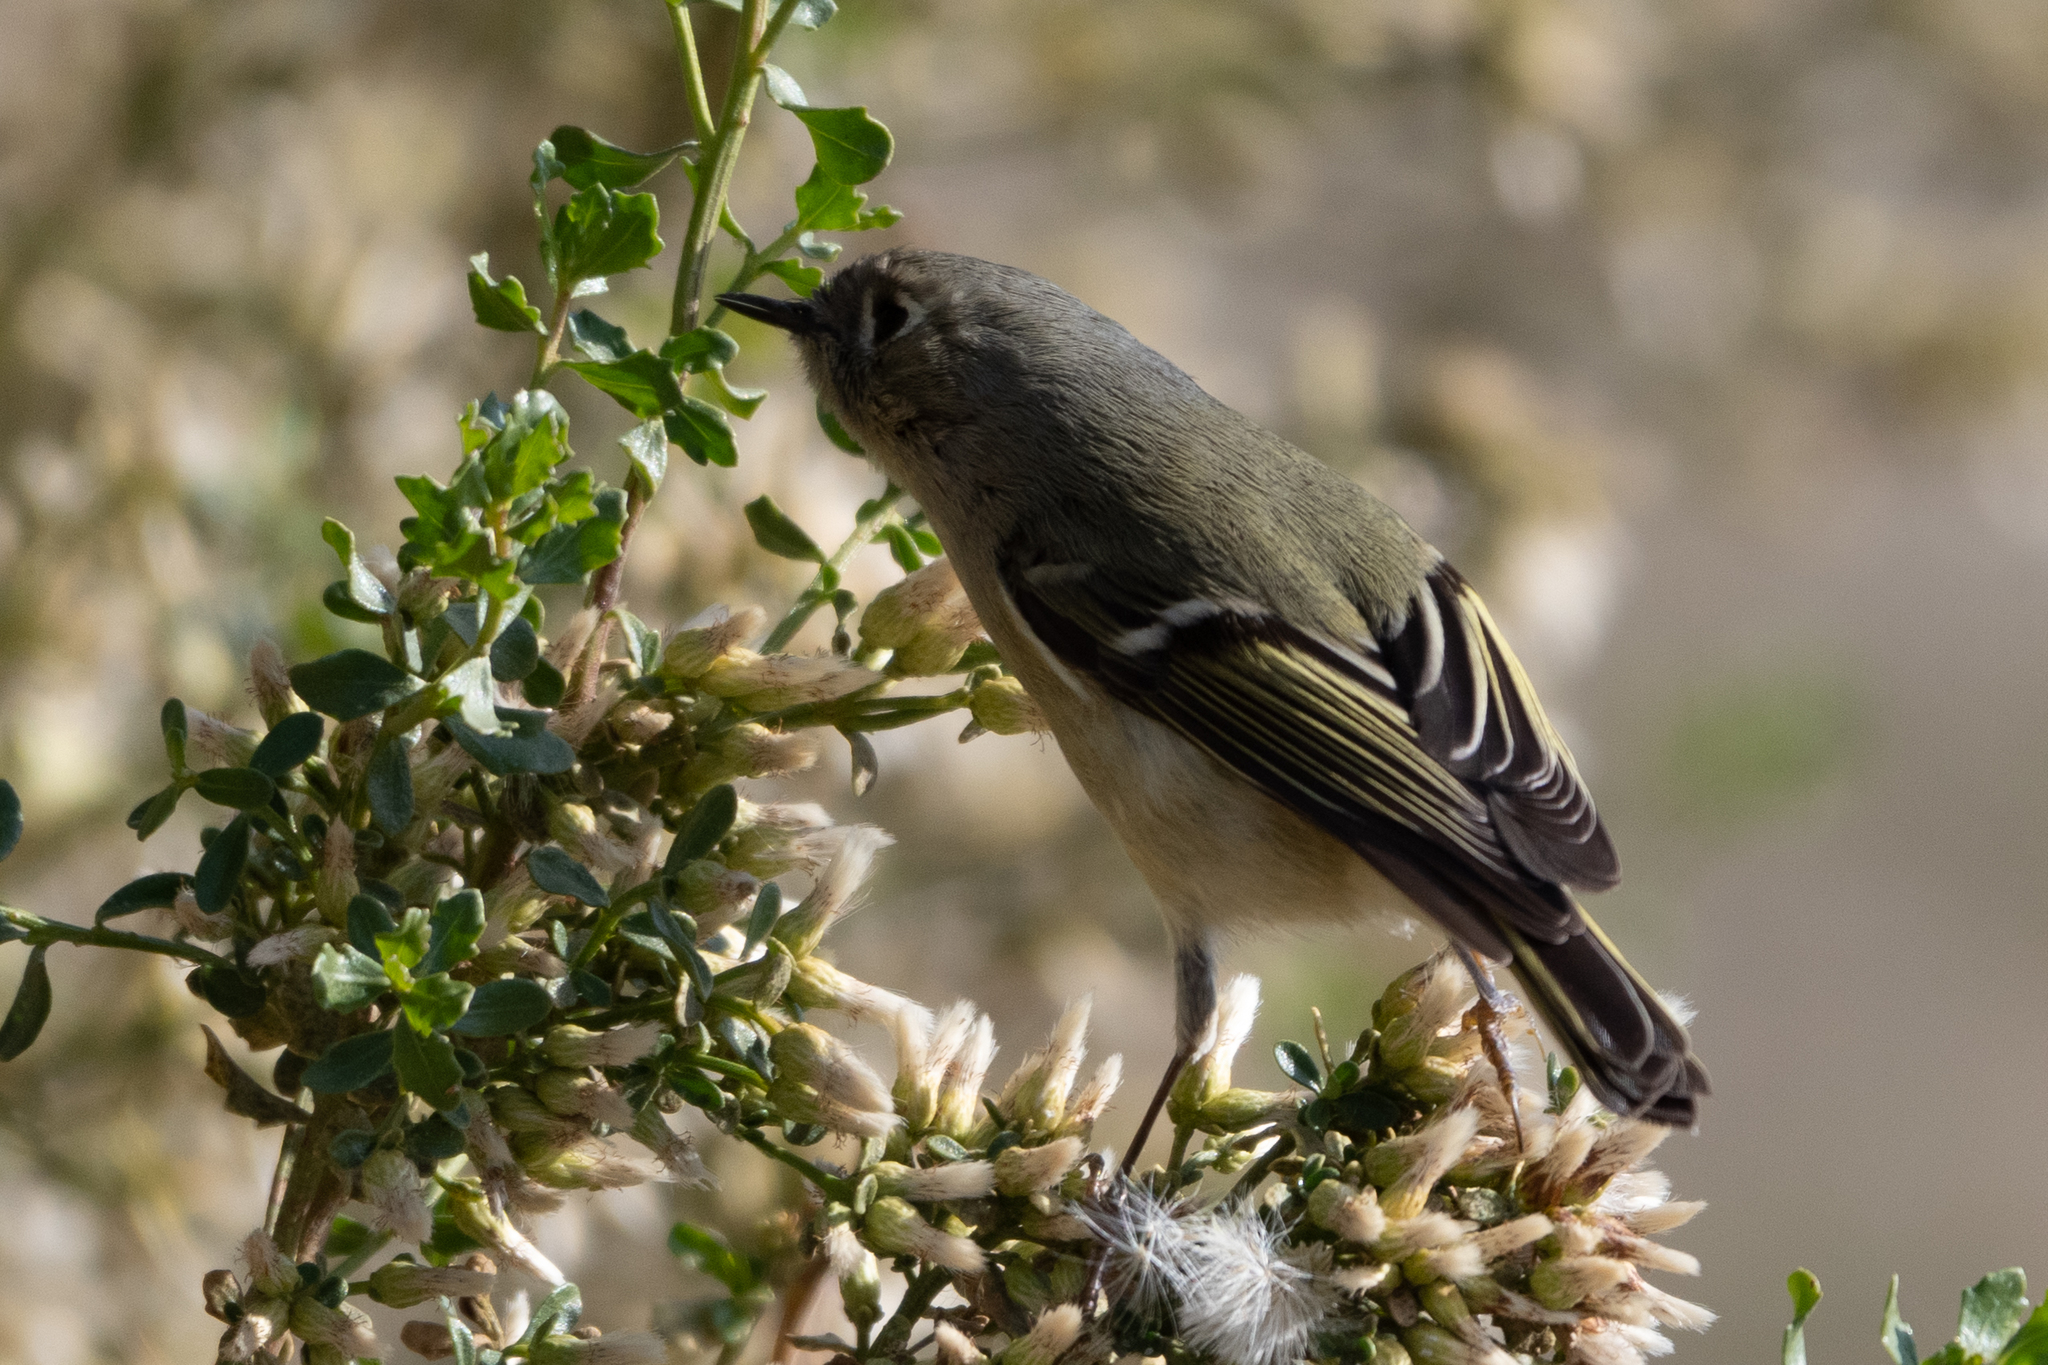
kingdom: Animalia
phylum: Chordata
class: Aves
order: Passeriformes
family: Regulidae
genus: Regulus
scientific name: Regulus calendula
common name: Ruby-crowned kinglet
